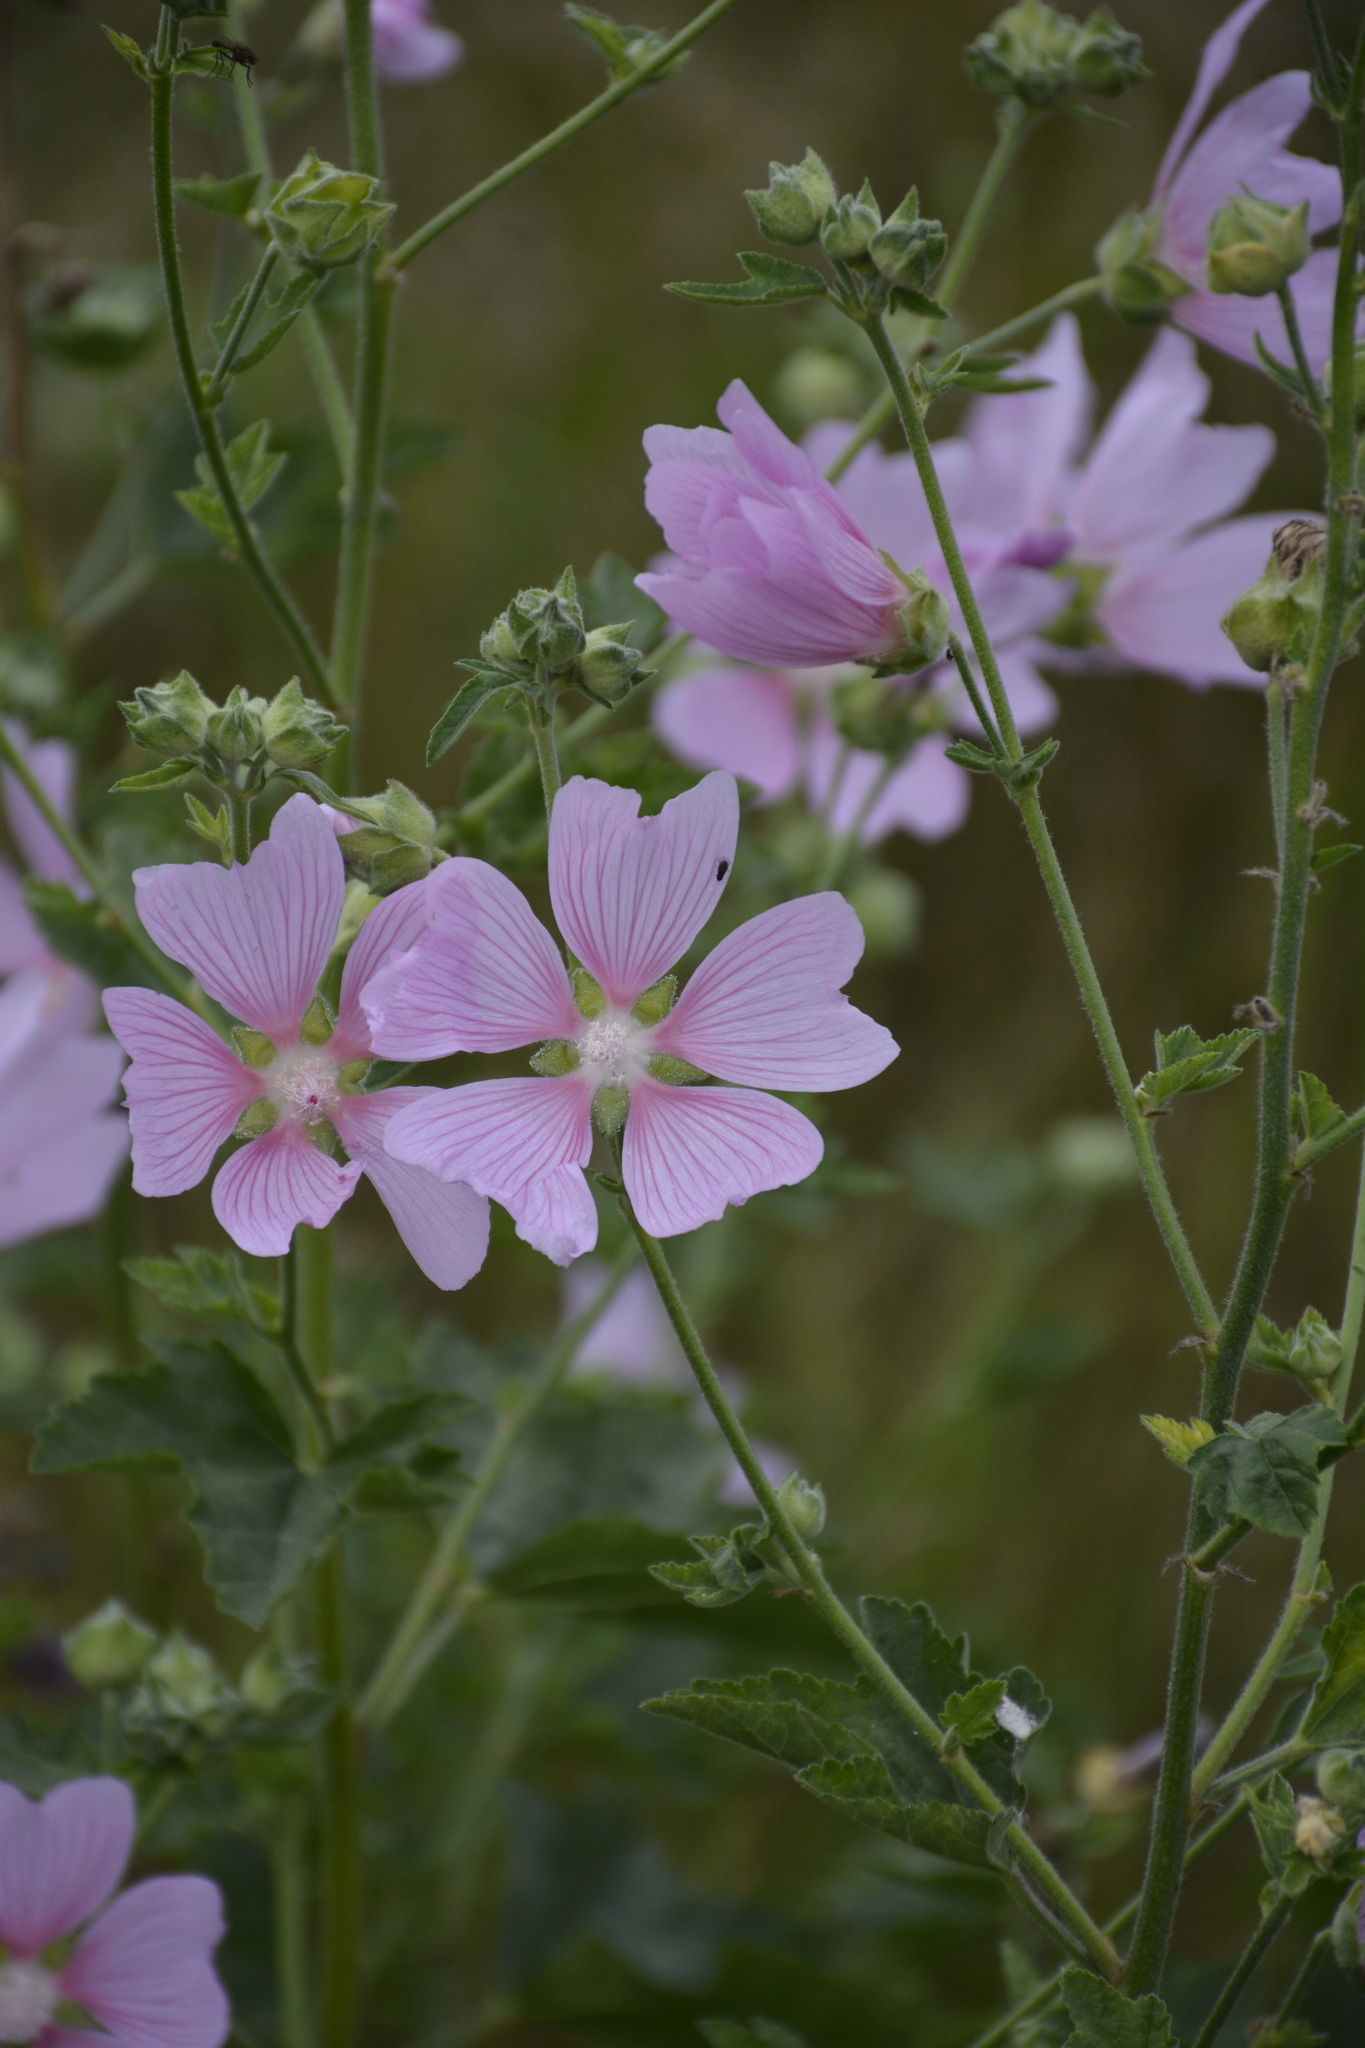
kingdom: Plantae
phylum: Tracheophyta
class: Magnoliopsida
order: Malvales
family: Malvaceae
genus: Malva
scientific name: Malva thuringiaca
